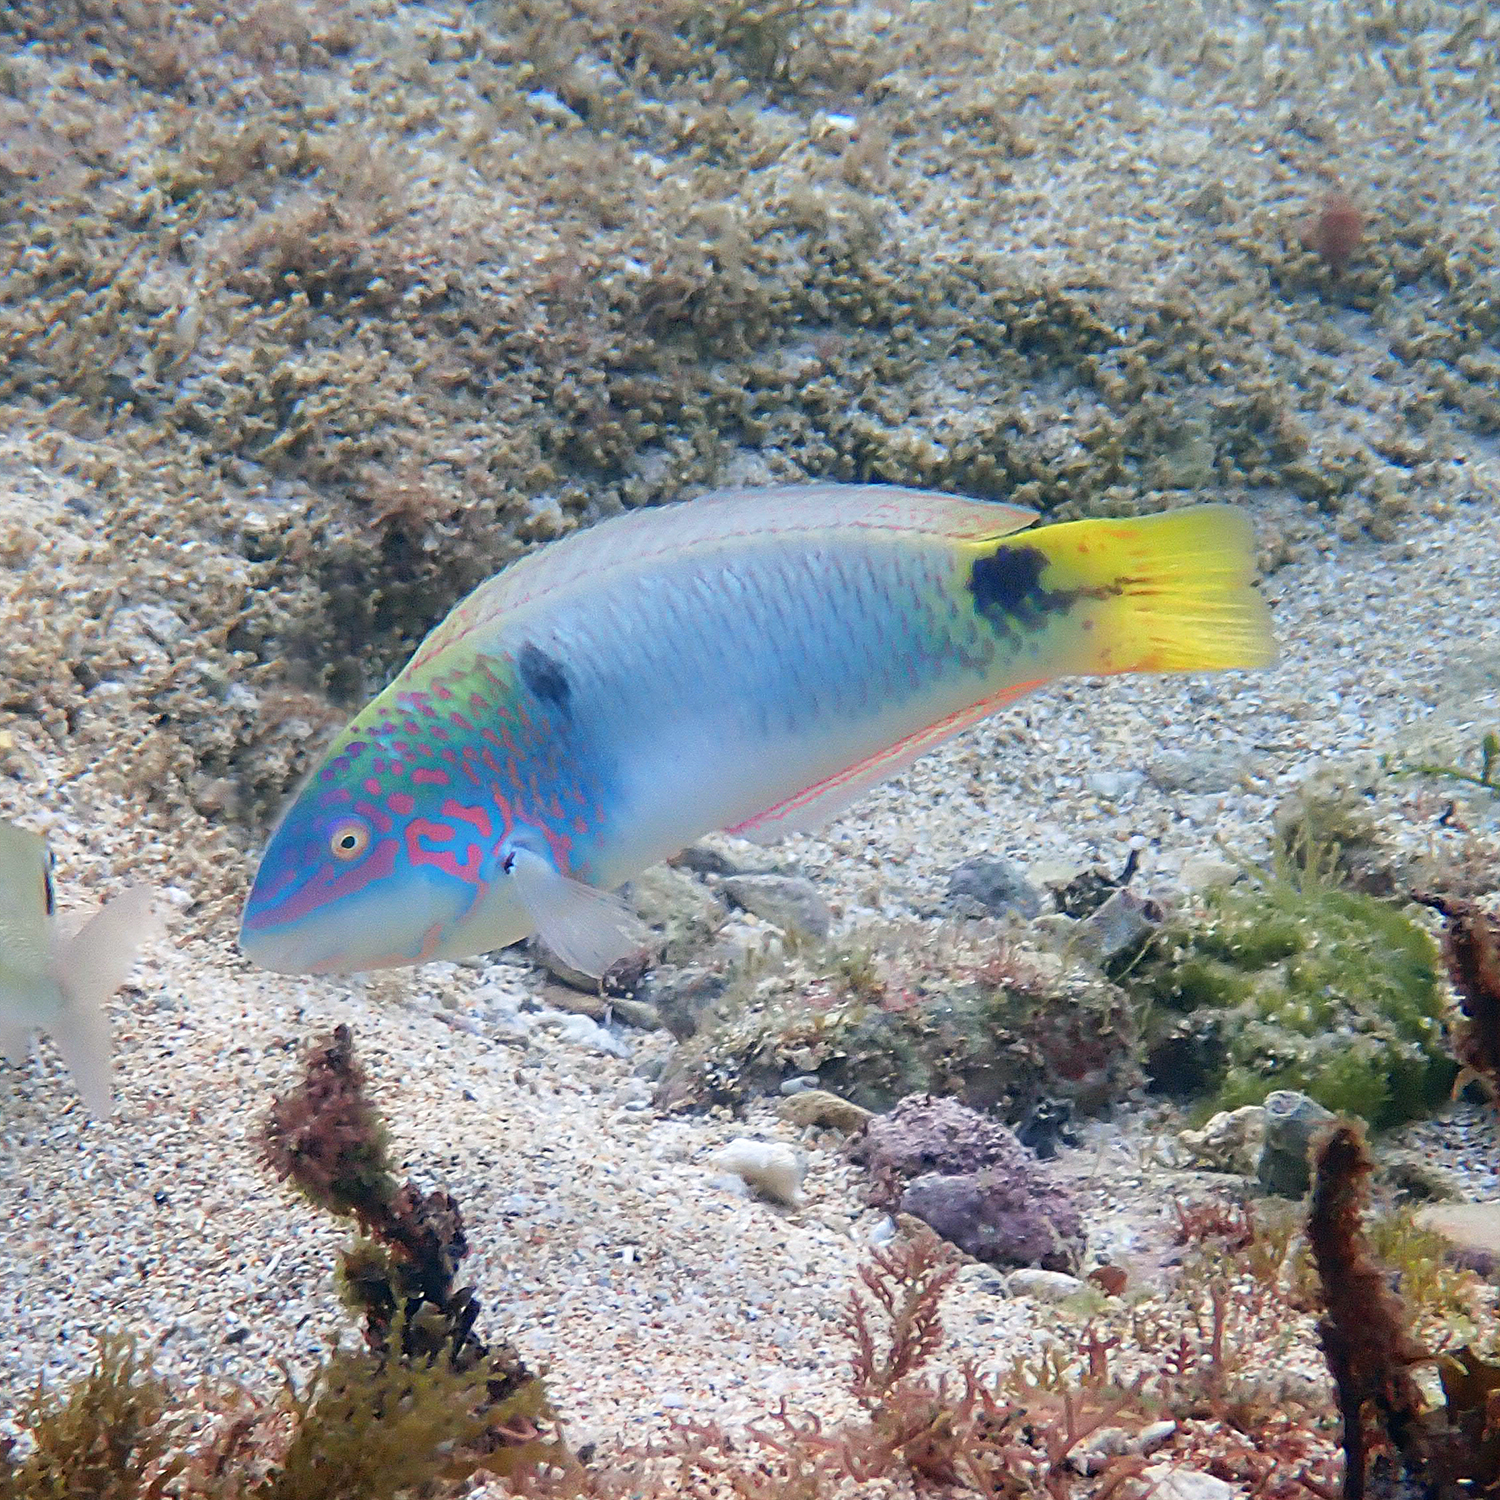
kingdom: Animalia
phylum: Chordata
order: Perciformes
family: Labridae
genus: Halichoeres
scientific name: Halichoeres trimaculatus
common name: Three-spot wrasse
